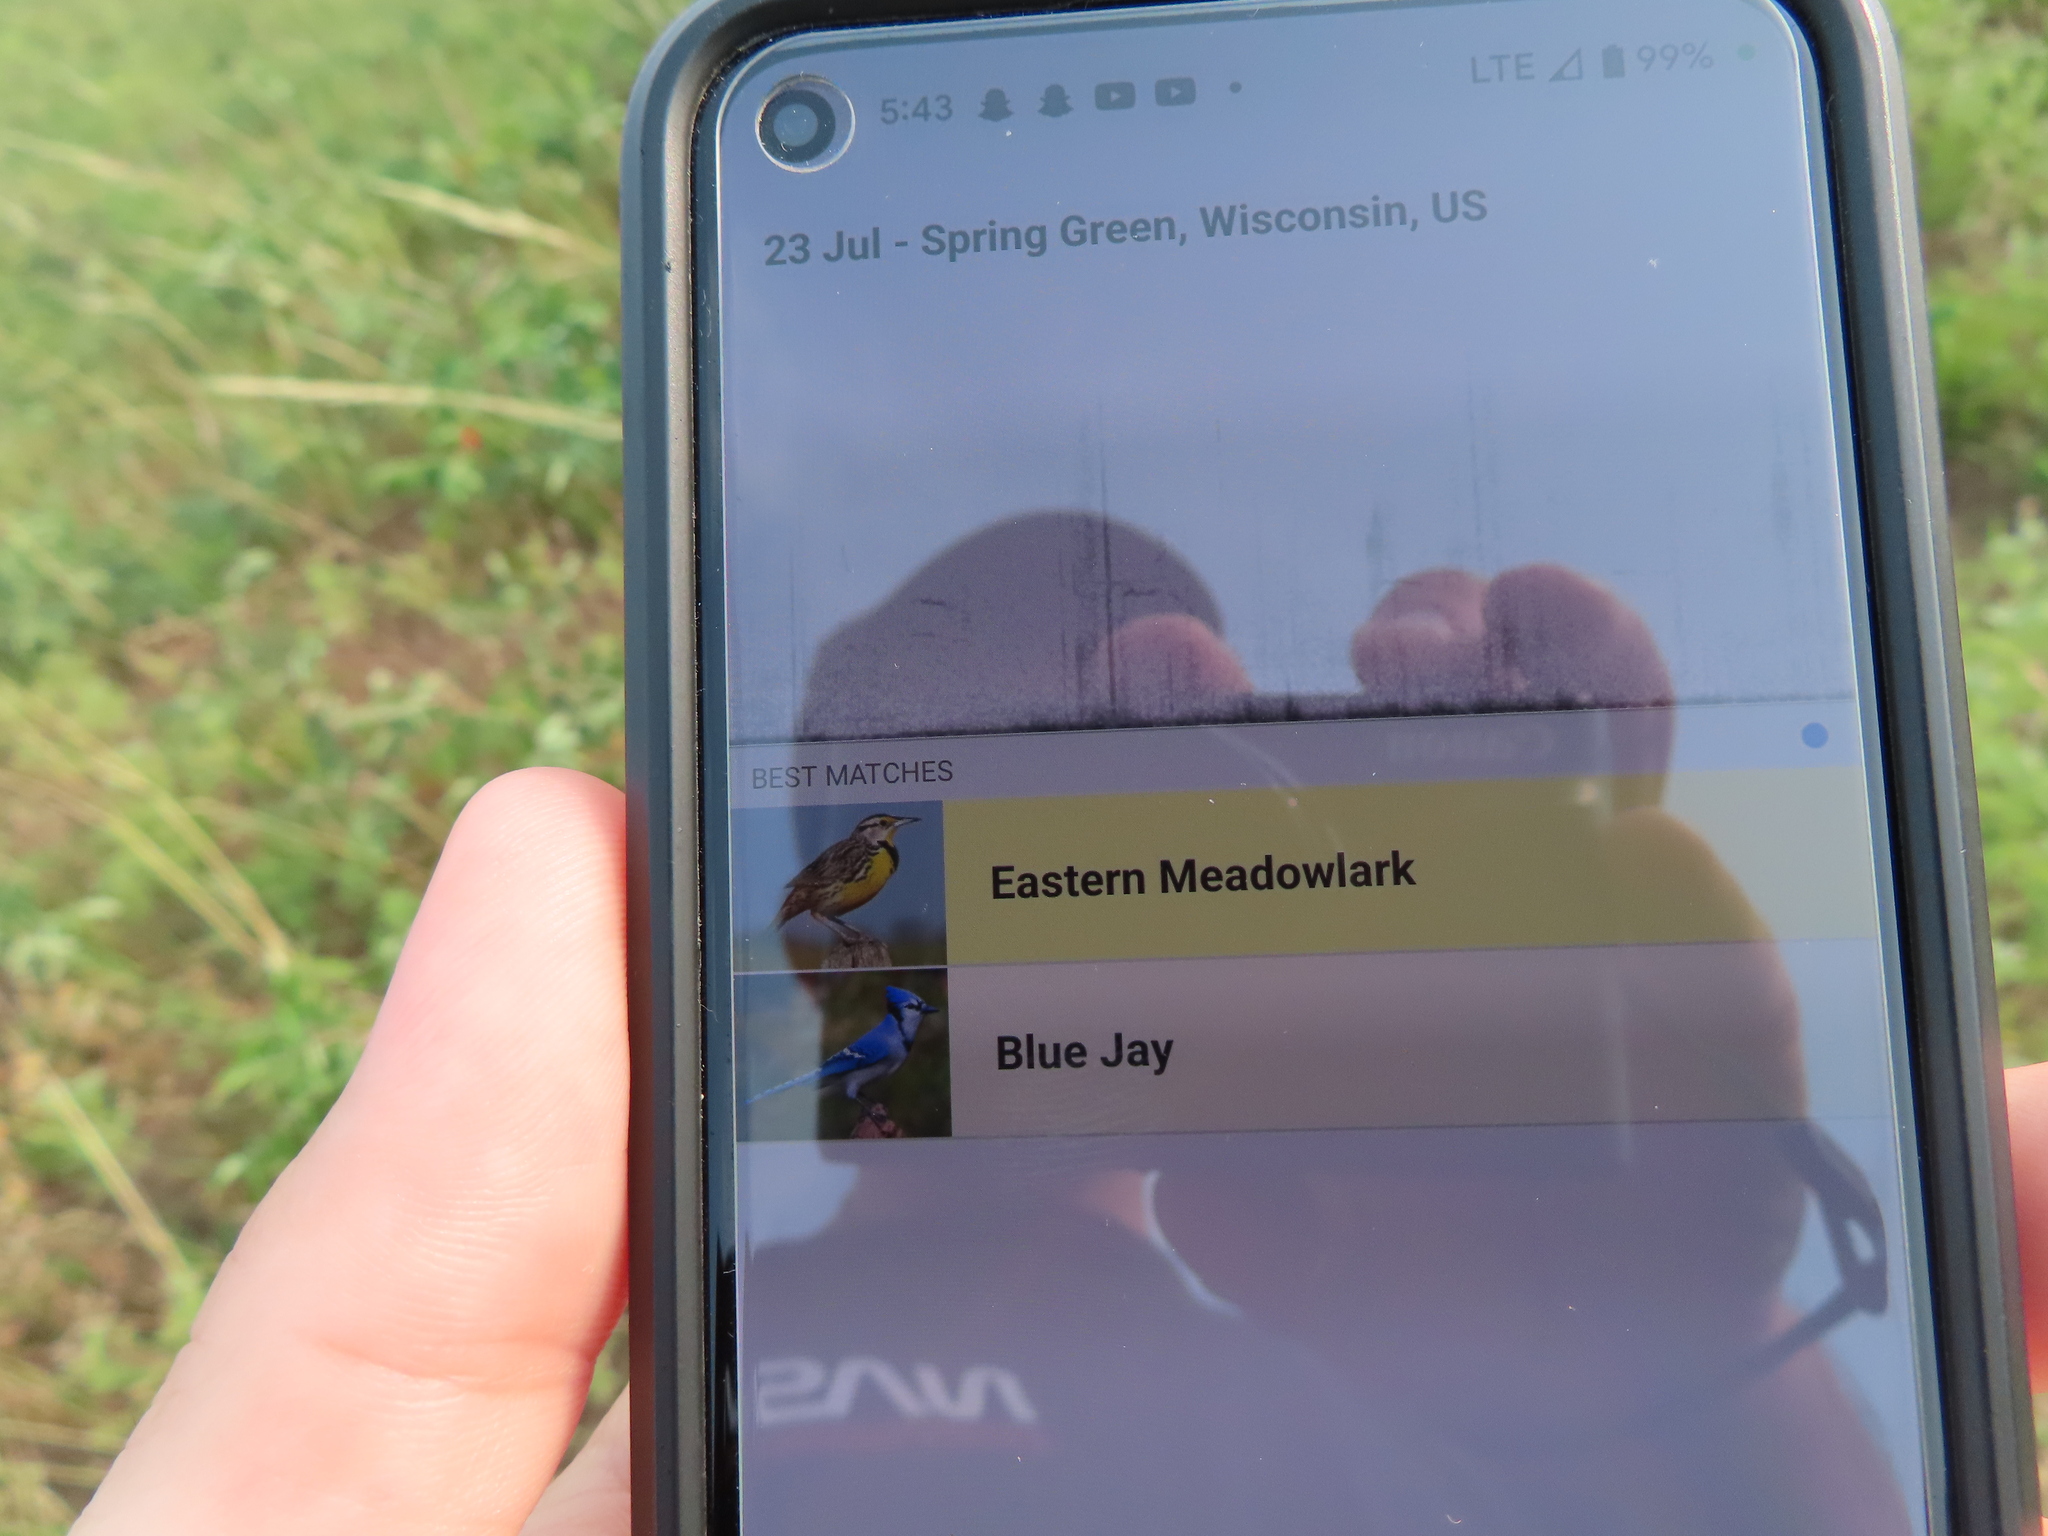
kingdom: Animalia
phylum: Chordata
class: Aves
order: Passeriformes
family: Corvidae
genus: Cyanocitta
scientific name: Cyanocitta cristata
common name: Blue jay
